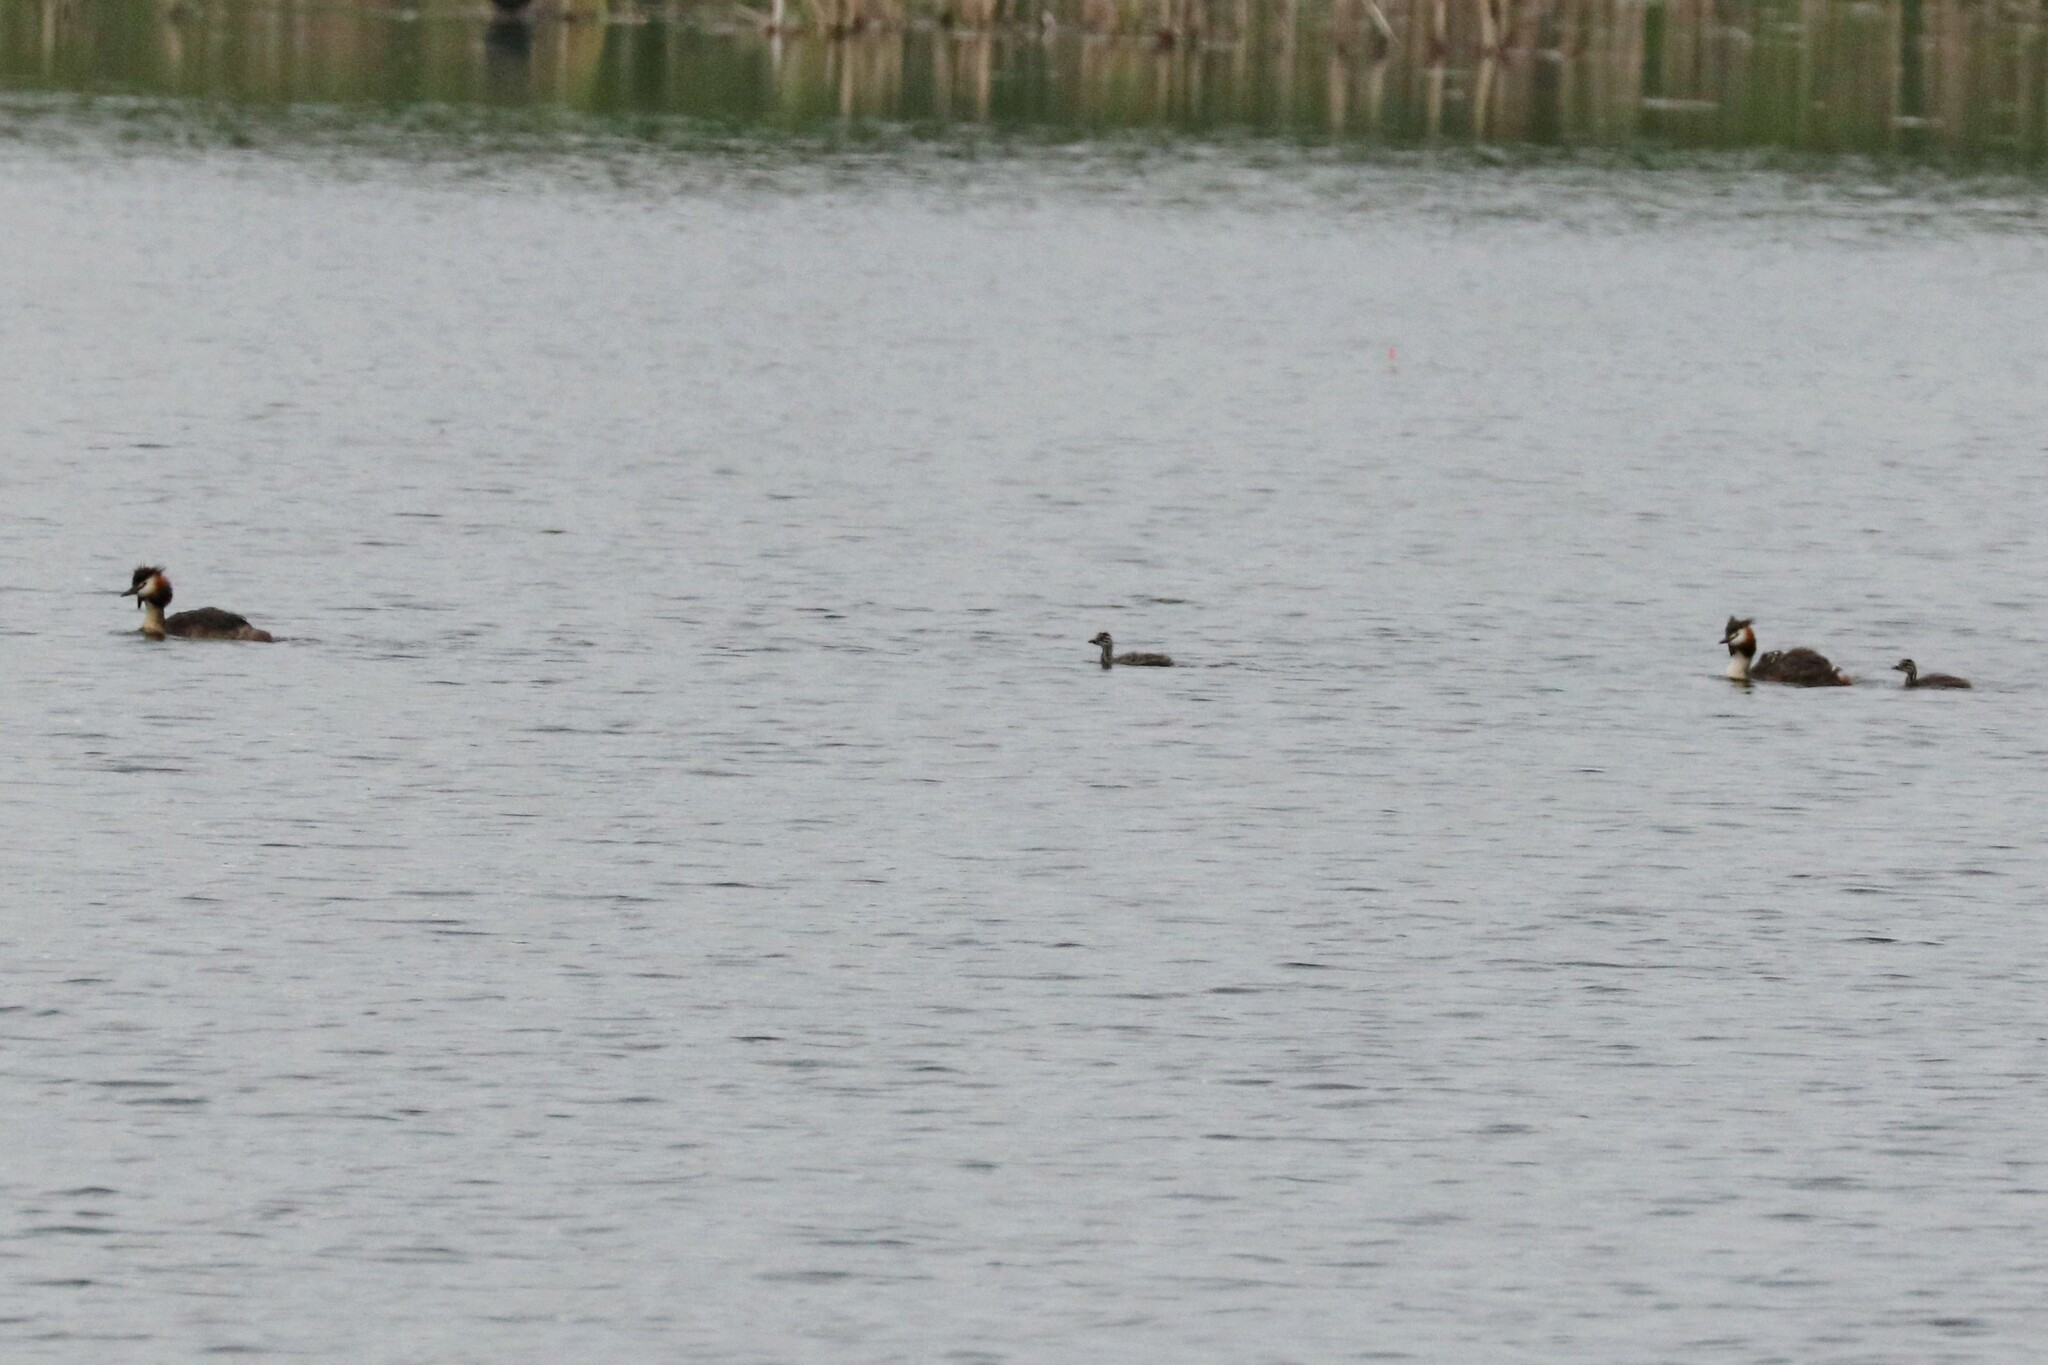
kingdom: Animalia
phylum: Chordata
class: Aves
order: Podicipediformes
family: Podicipedidae
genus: Podiceps
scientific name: Podiceps cristatus
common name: Great crested grebe
